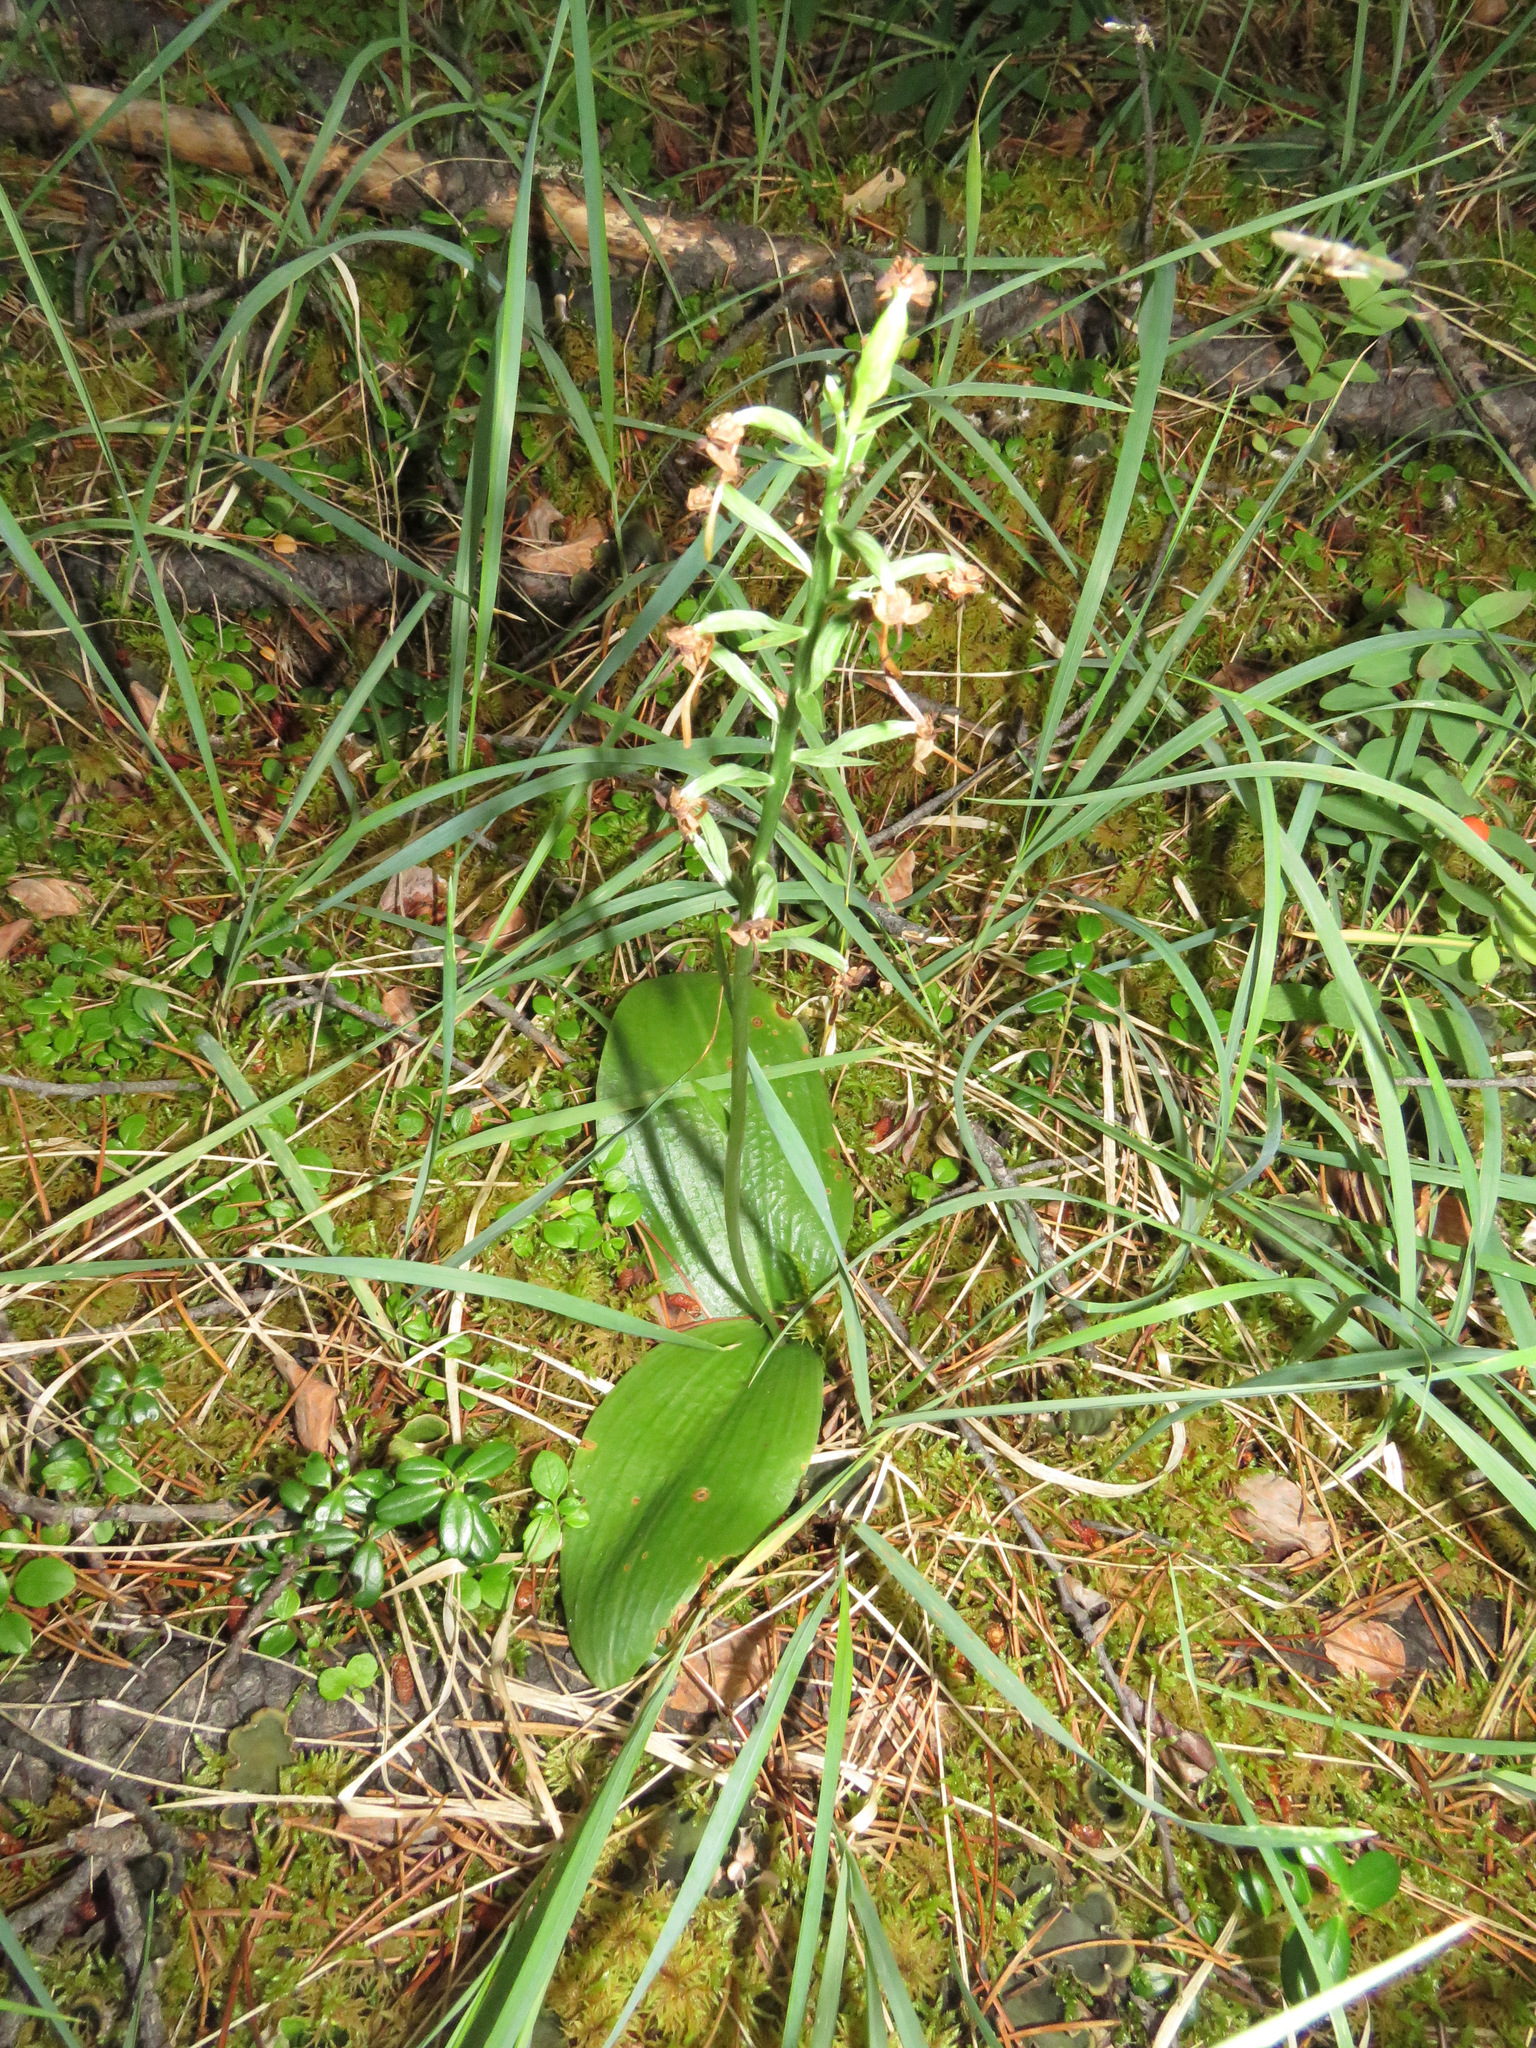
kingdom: Plantae
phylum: Tracheophyta
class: Liliopsida
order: Asparagales
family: Orchidaceae
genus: Platanthera
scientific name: Platanthera orbiculata
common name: Large round-leaved orchid
